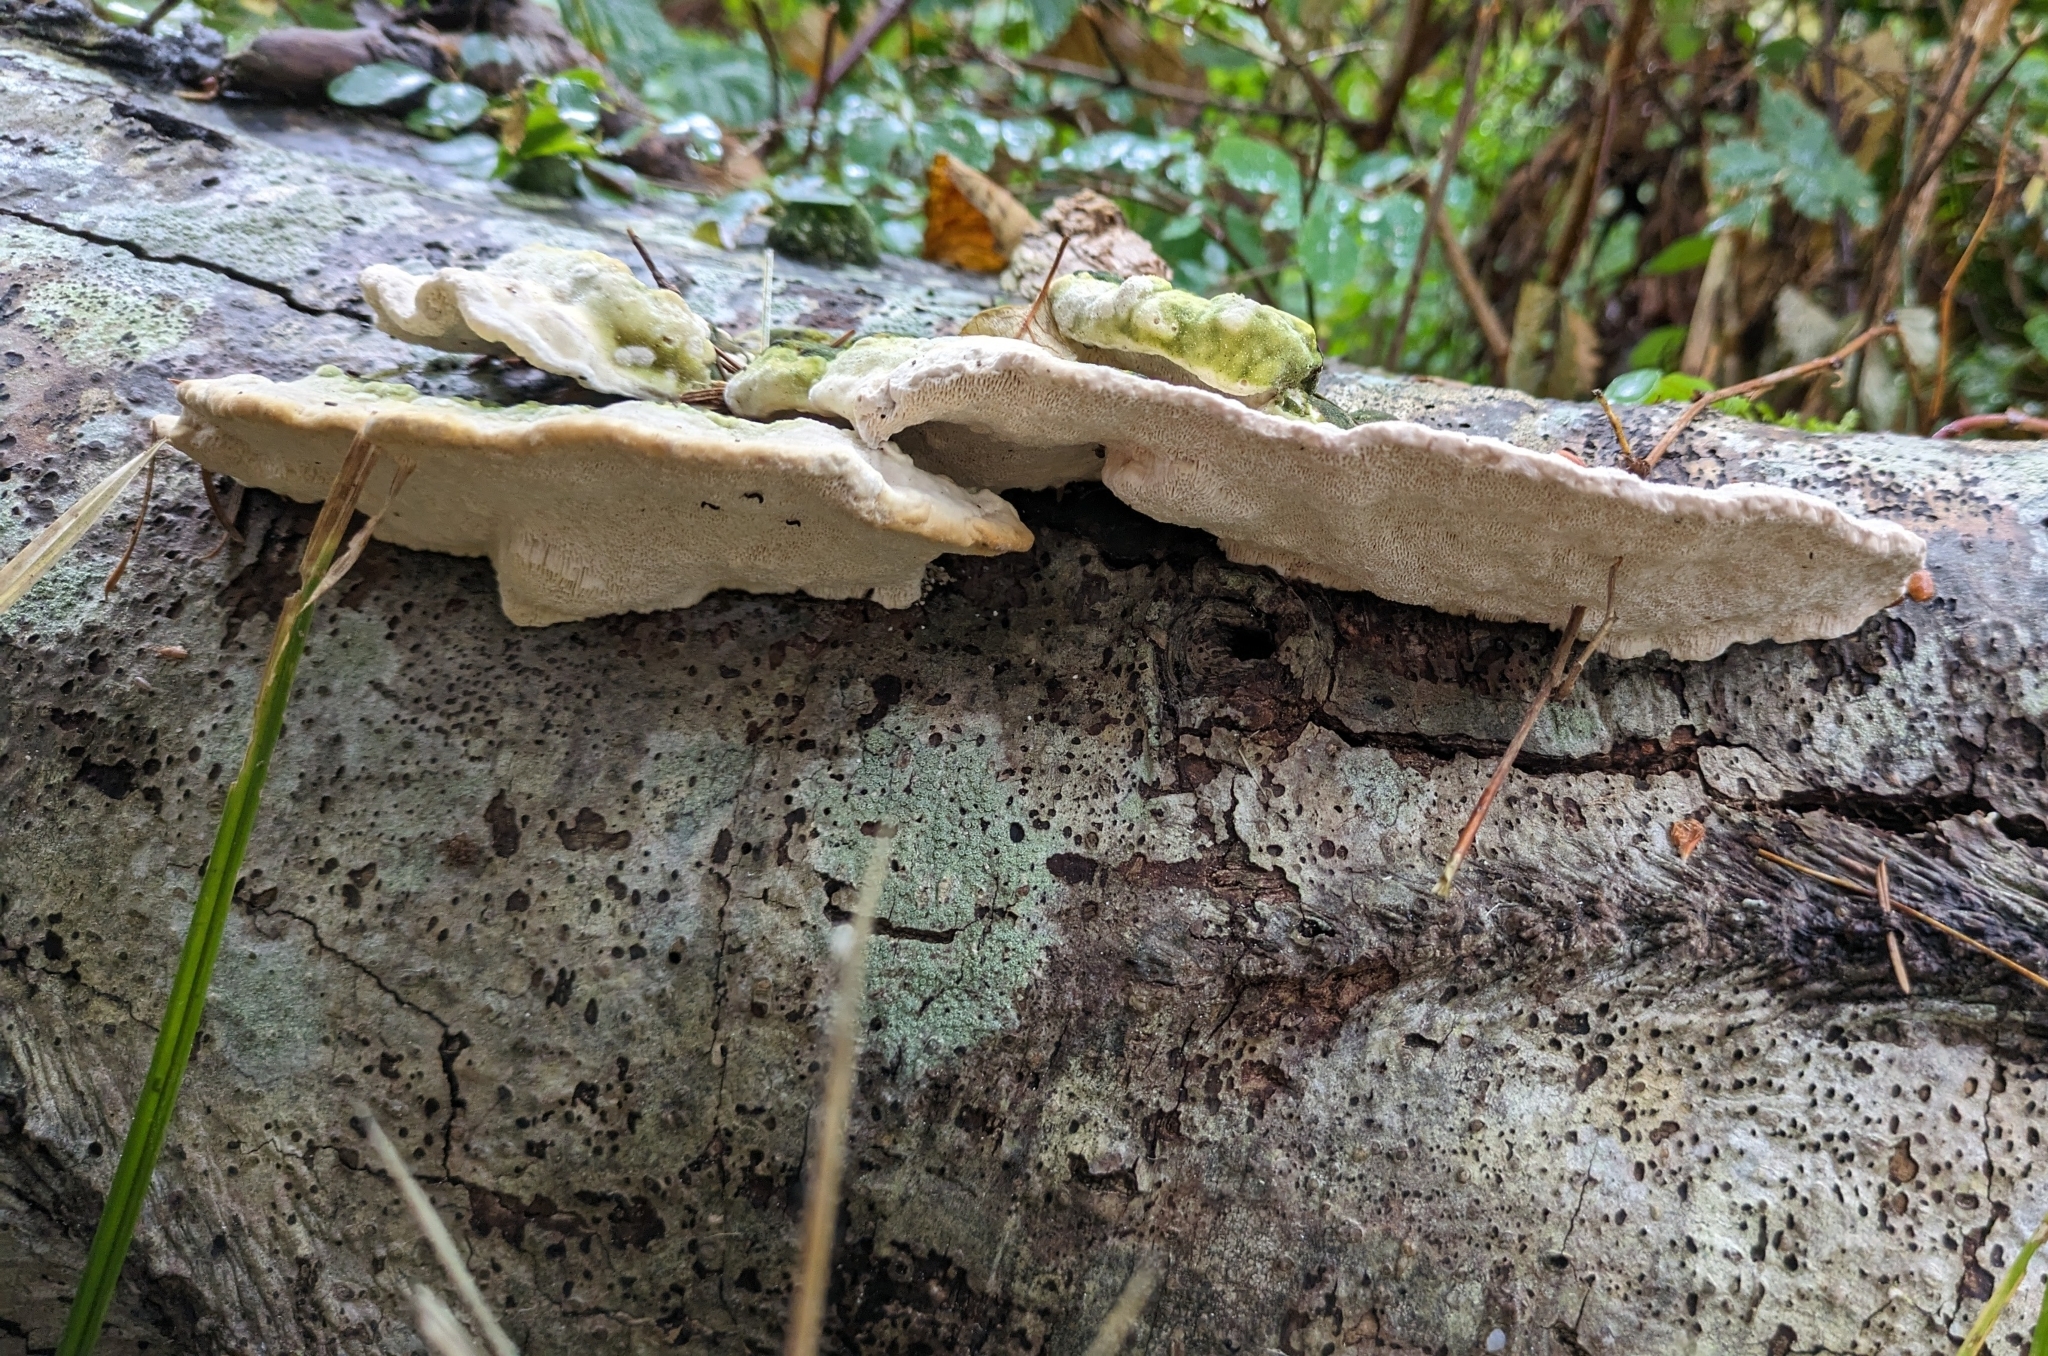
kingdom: Fungi
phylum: Basidiomycota
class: Agaricomycetes
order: Polyporales
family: Polyporaceae
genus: Trametes
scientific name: Trametes gibbosa
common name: Lumpy bracket
